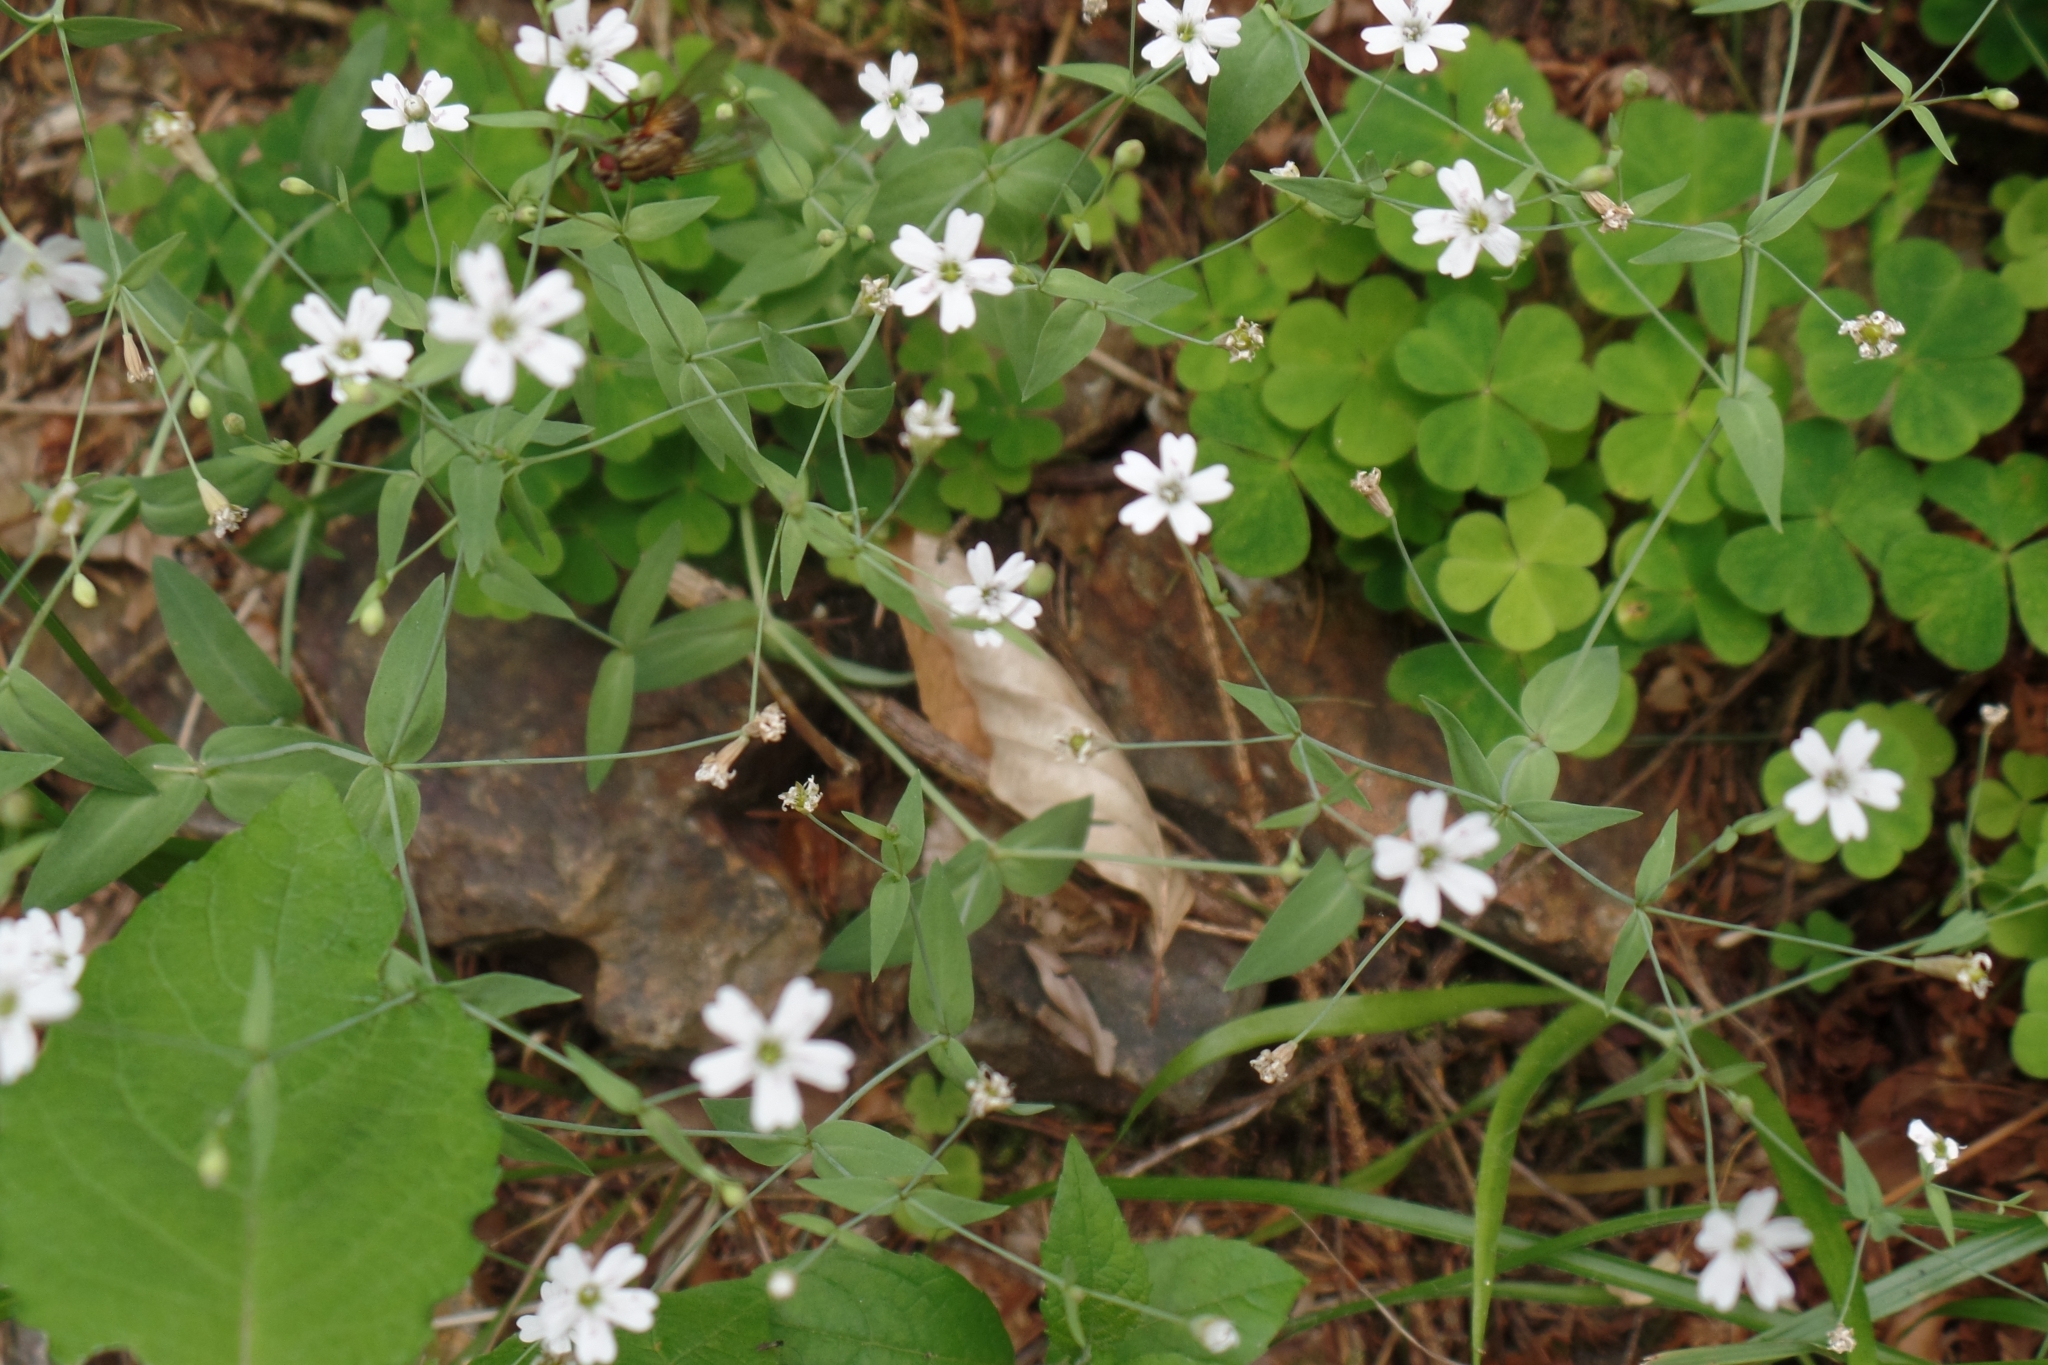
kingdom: Plantae
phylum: Tracheophyta
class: Magnoliopsida
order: Caryophyllales
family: Caryophyllaceae
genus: Atocion
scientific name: Atocion rupestre
